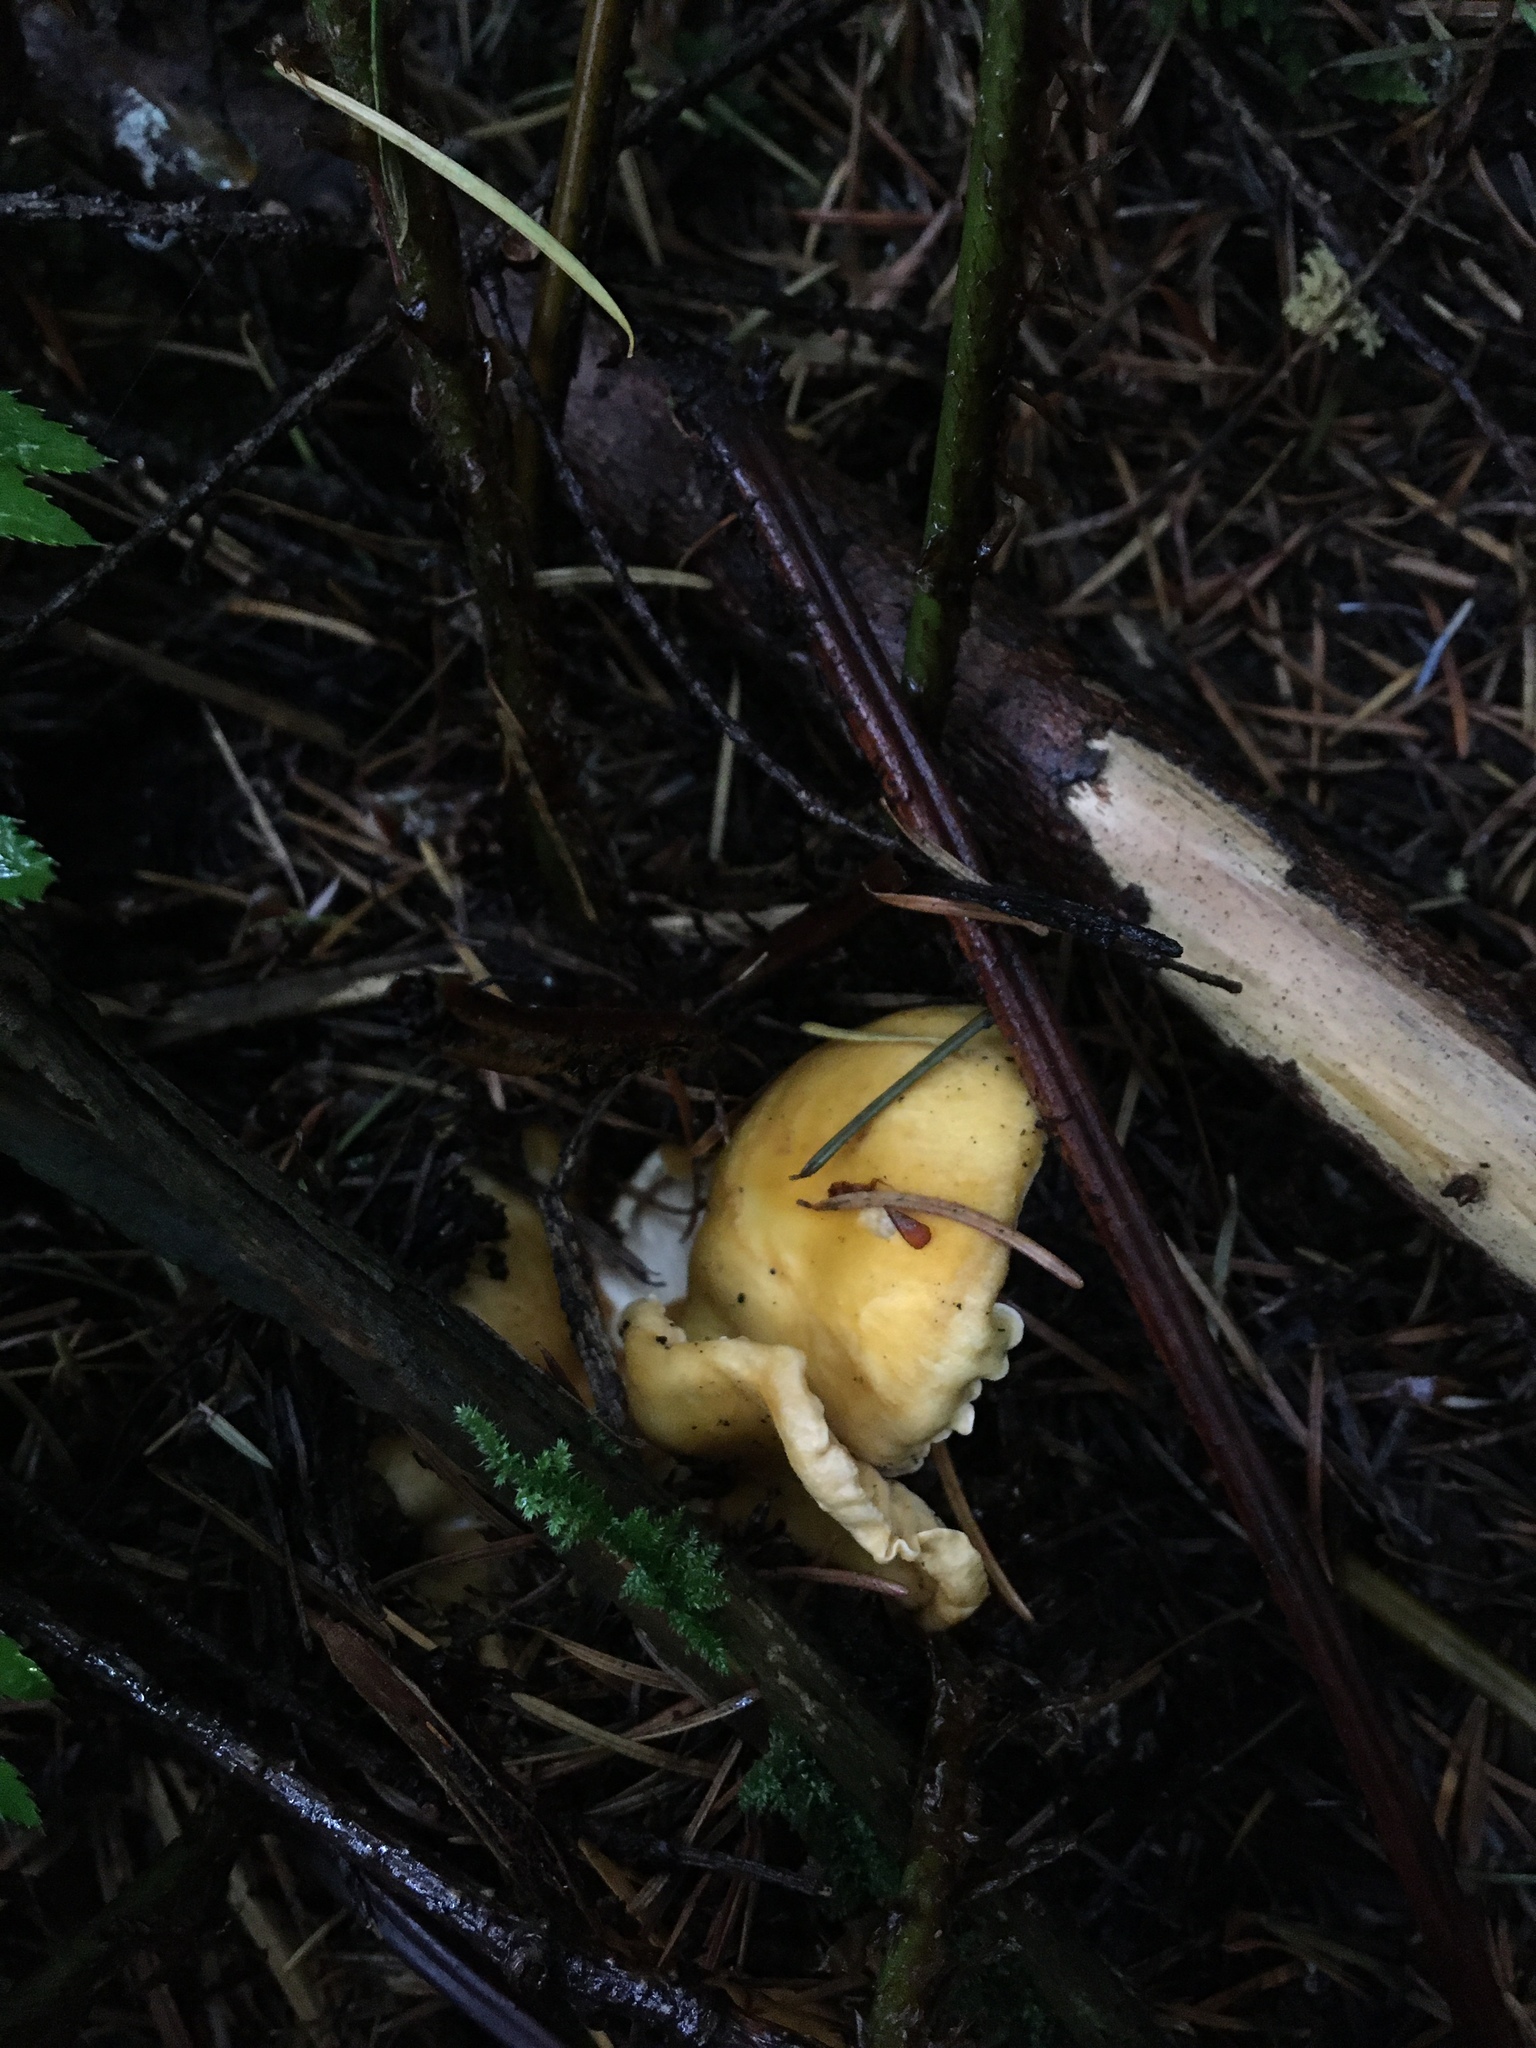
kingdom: Fungi
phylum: Basidiomycota
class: Agaricomycetes
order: Cantharellales
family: Hydnaceae
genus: Cantharellus
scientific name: Cantharellus formosus
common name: Pacific golden chanterelle
